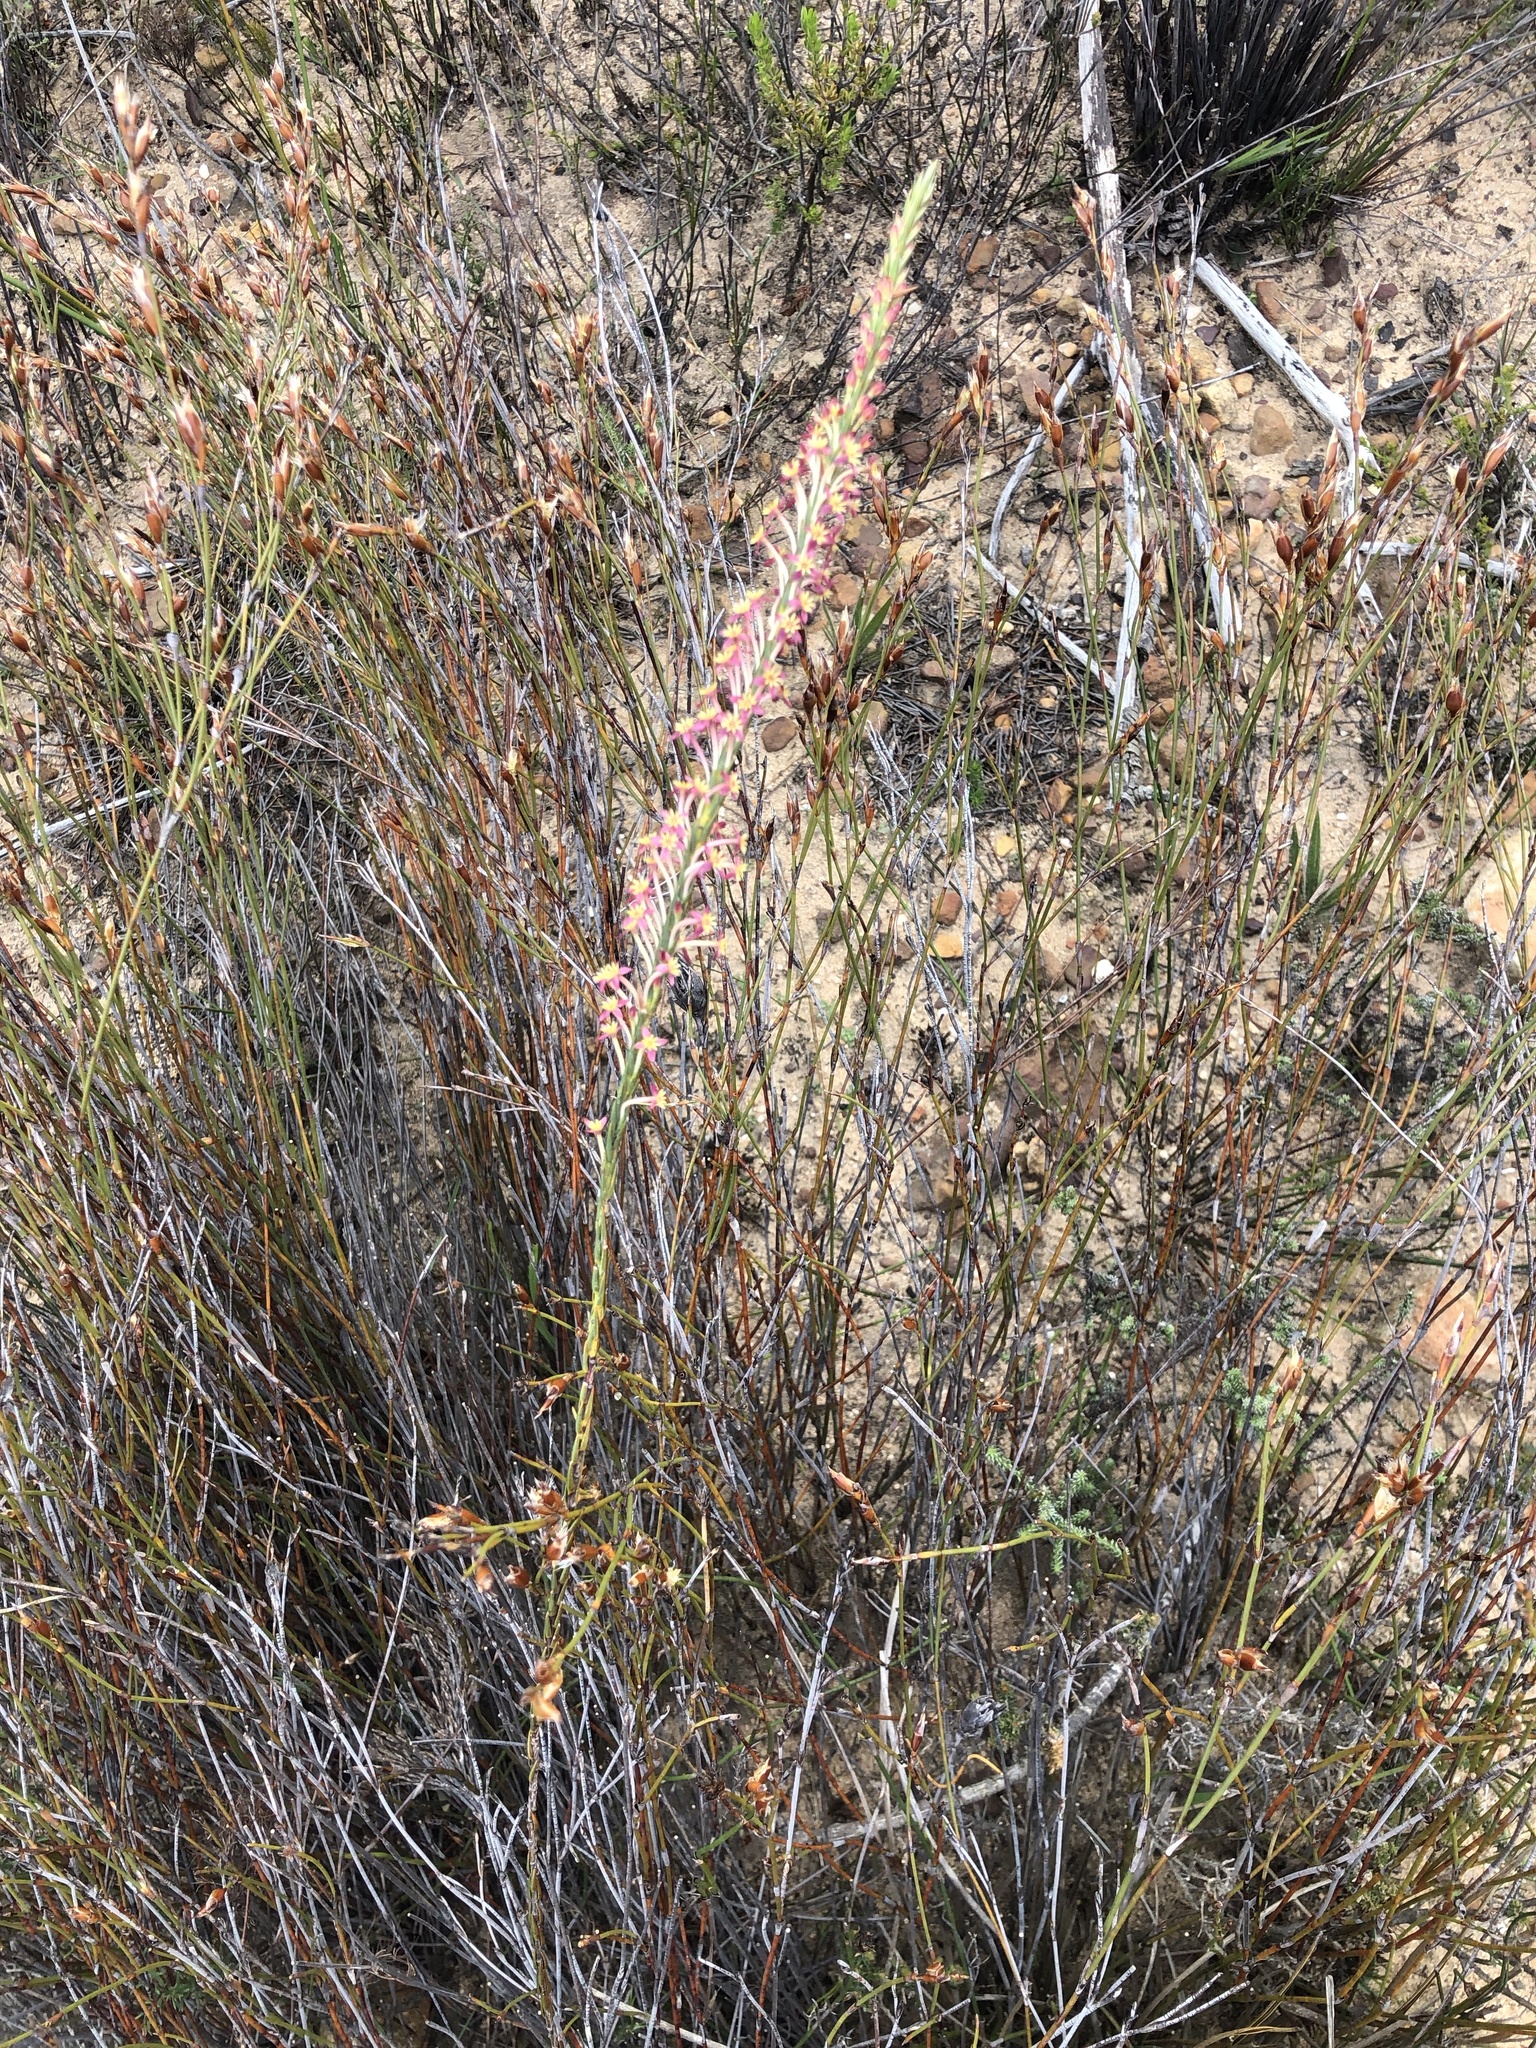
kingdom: Plantae
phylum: Tracheophyta
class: Magnoliopsida
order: Malvales
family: Thymelaeaceae
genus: Struthiola
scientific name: Struthiola ciliata
